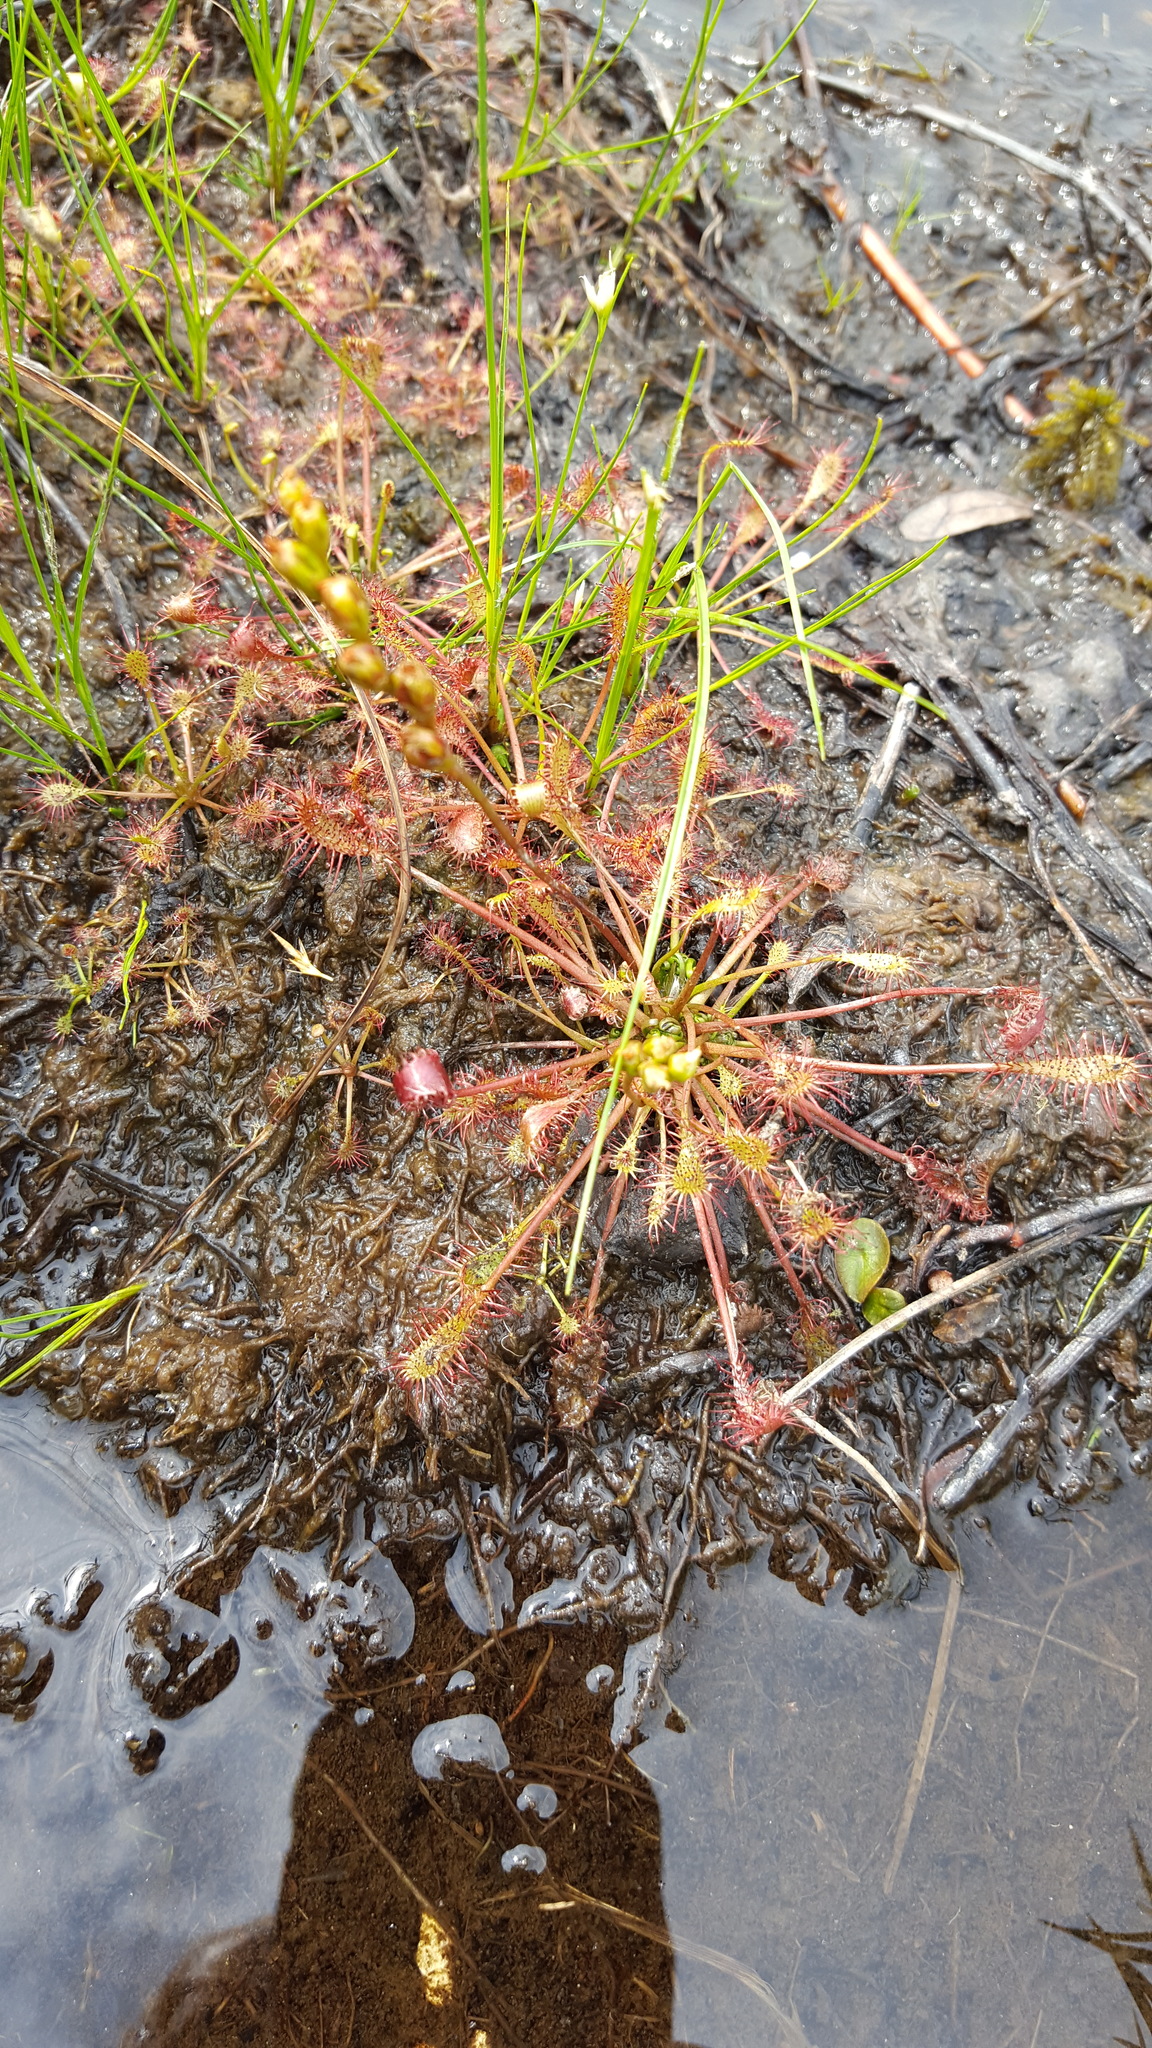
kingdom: Plantae
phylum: Tracheophyta
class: Magnoliopsida
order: Caryophyllales
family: Droseraceae
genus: Drosera
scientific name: Drosera intermedia
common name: Oblong-leaved sundew
